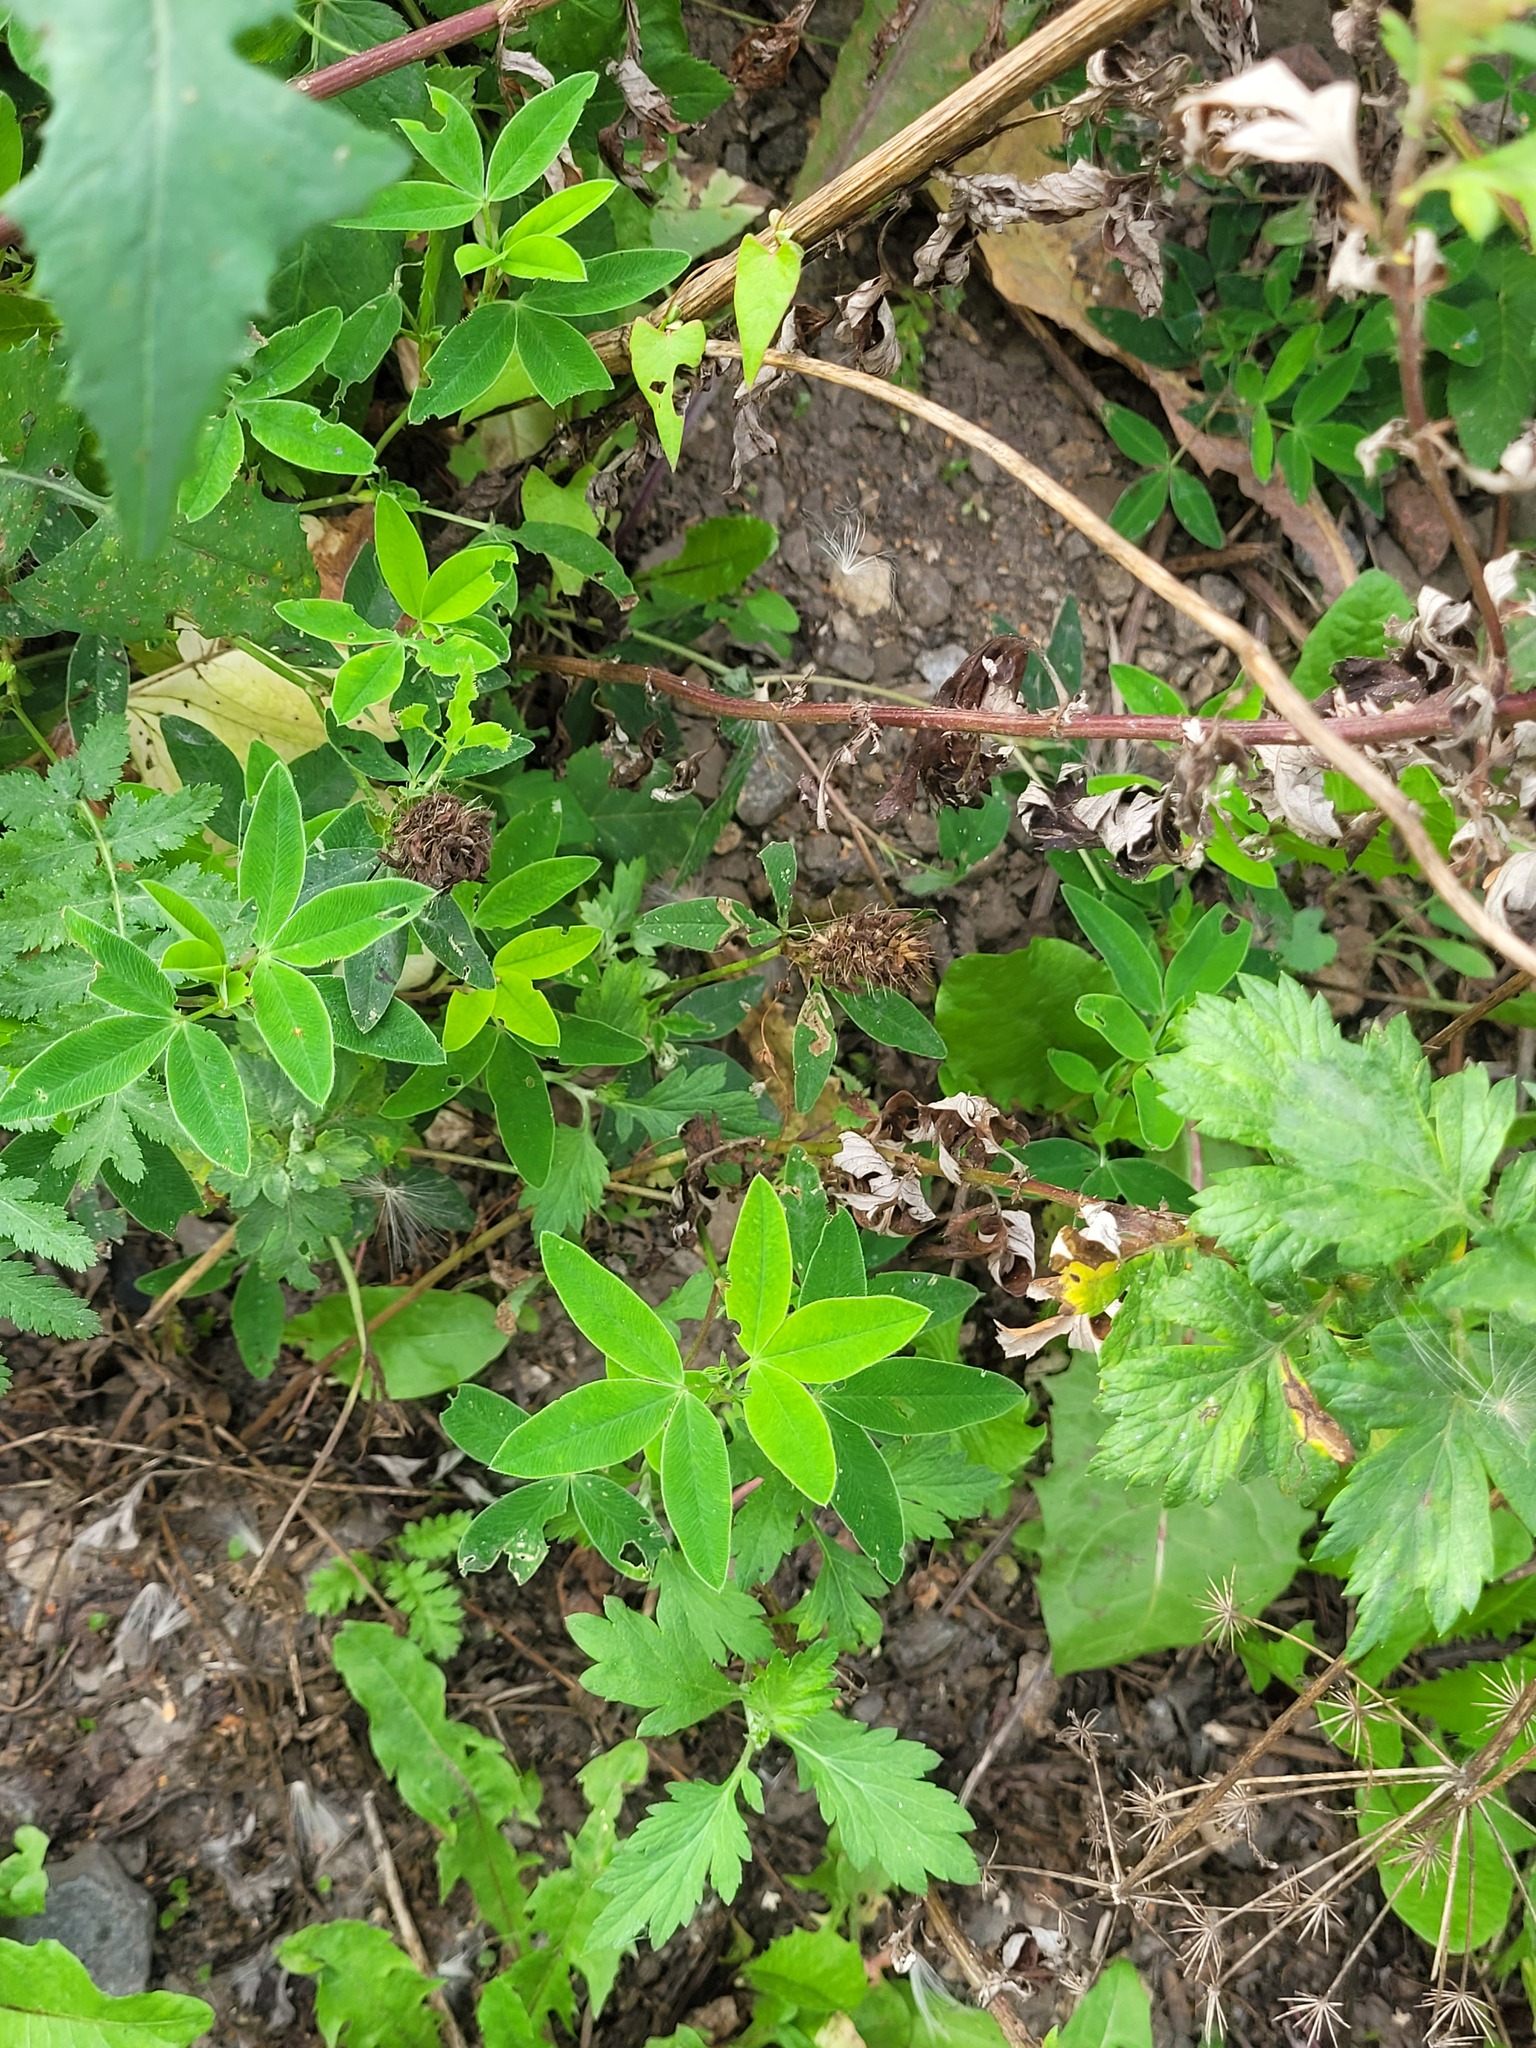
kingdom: Plantae
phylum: Tracheophyta
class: Magnoliopsida
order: Fabales
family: Fabaceae
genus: Trifolium
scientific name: Trifolium medium
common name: Zigzag clover
